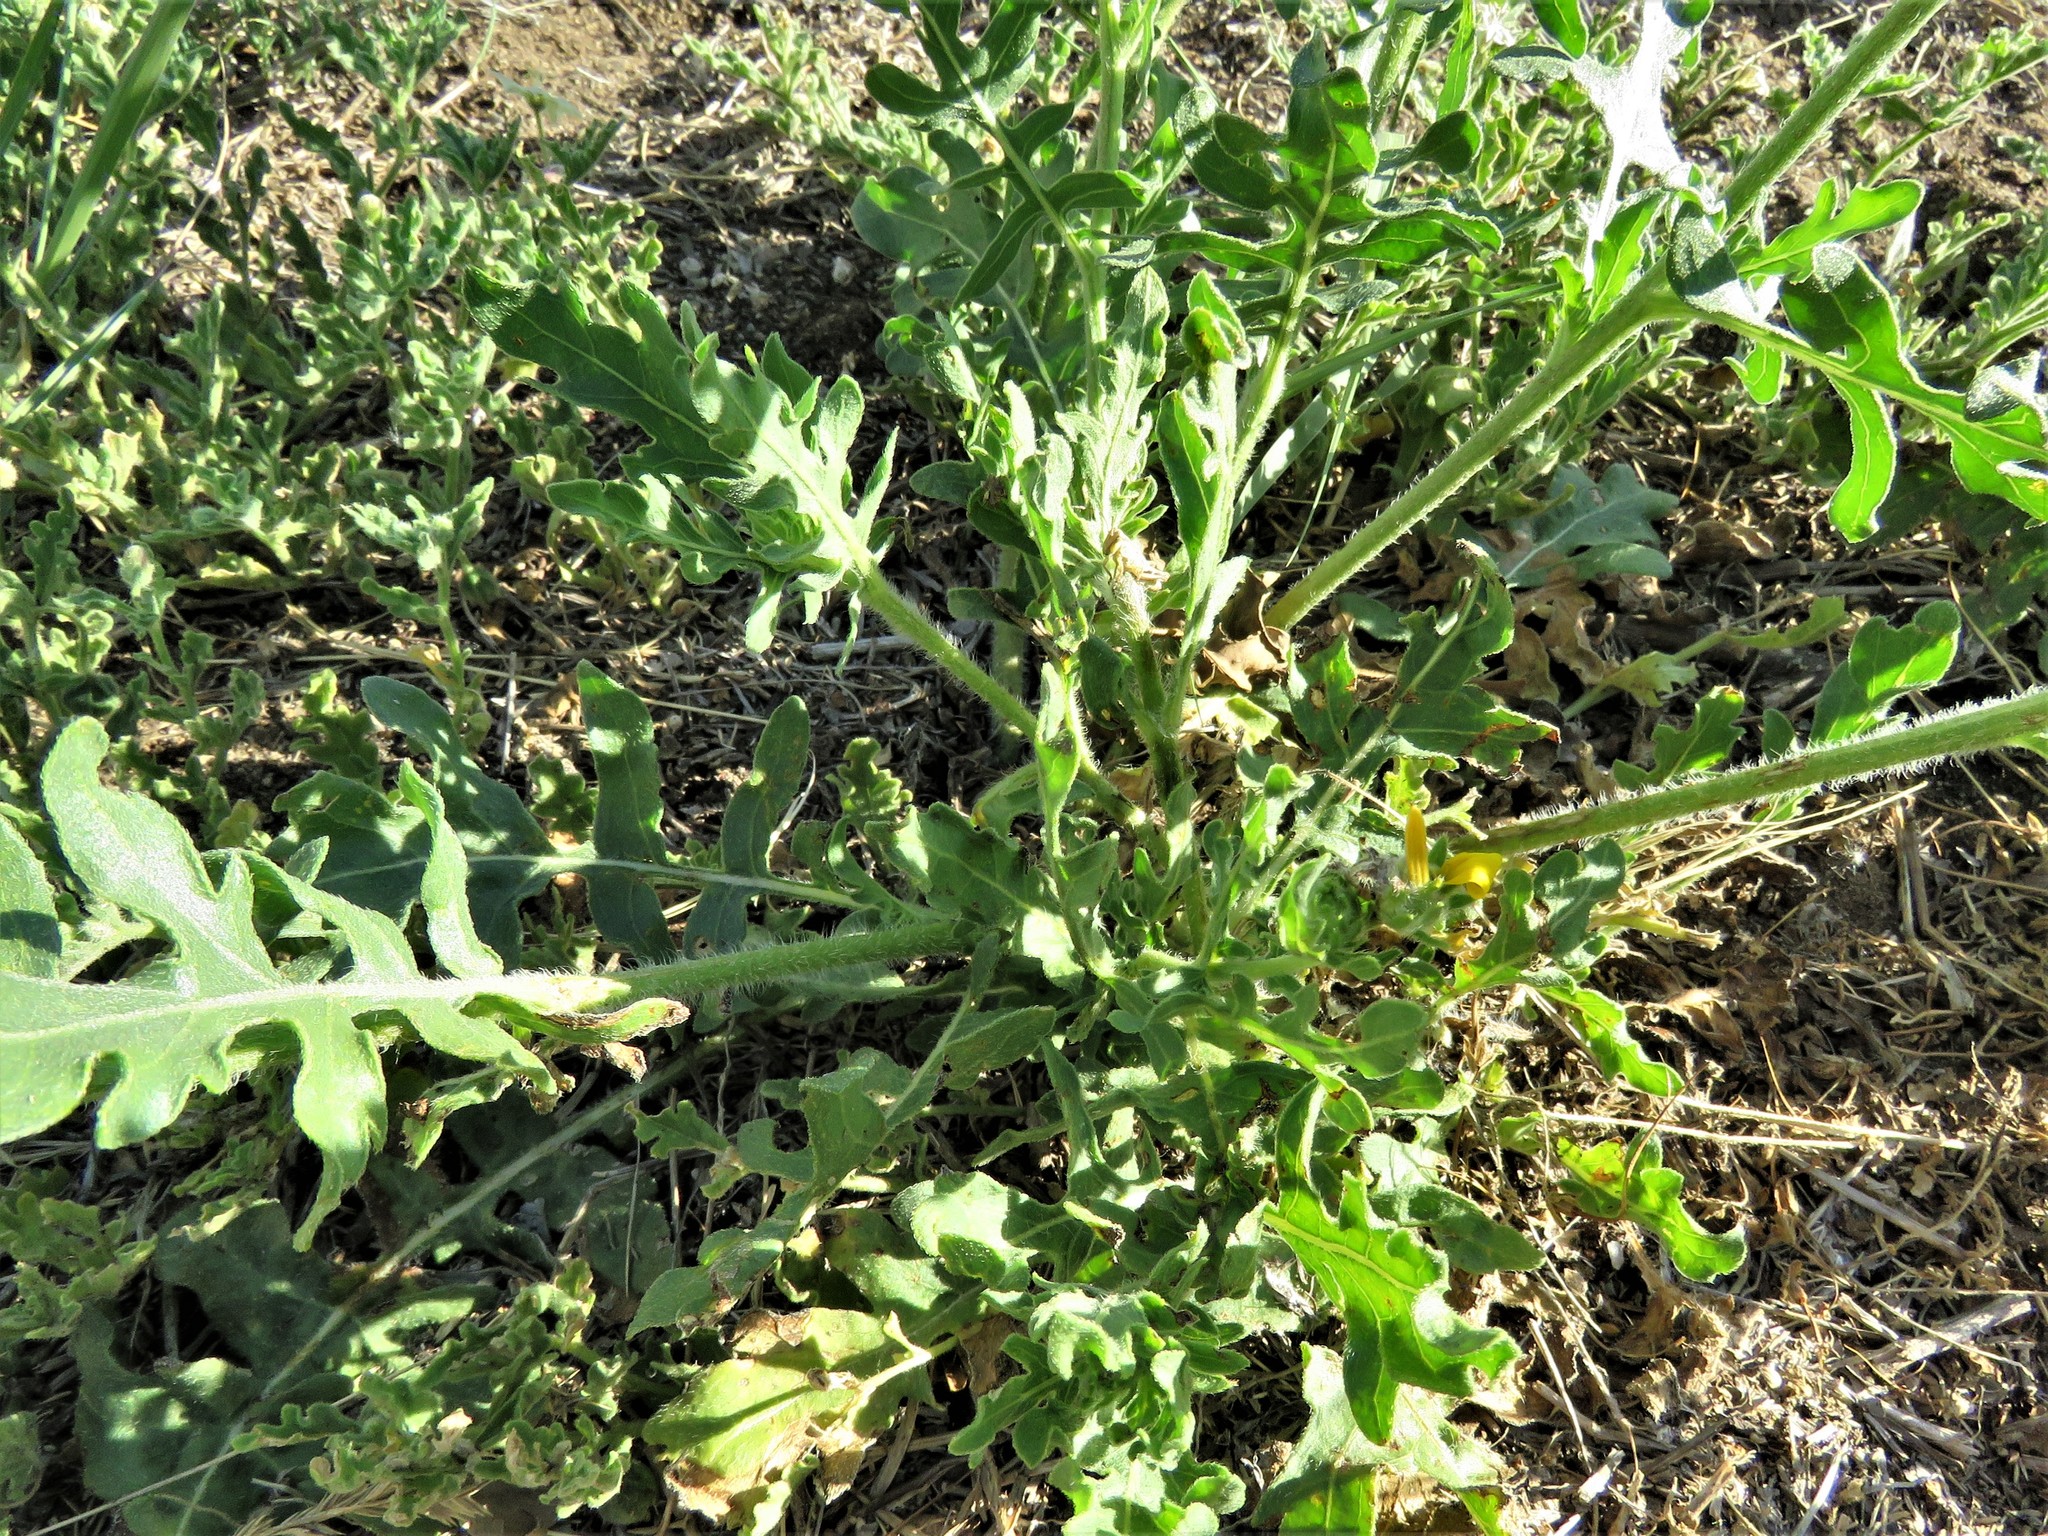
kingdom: Plantae
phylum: Tracheophyta
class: Magnoliopsida
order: Asterales
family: Asteraceae
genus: Engelmannia
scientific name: Engelmannia peristenia
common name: Engelmann's daisy
